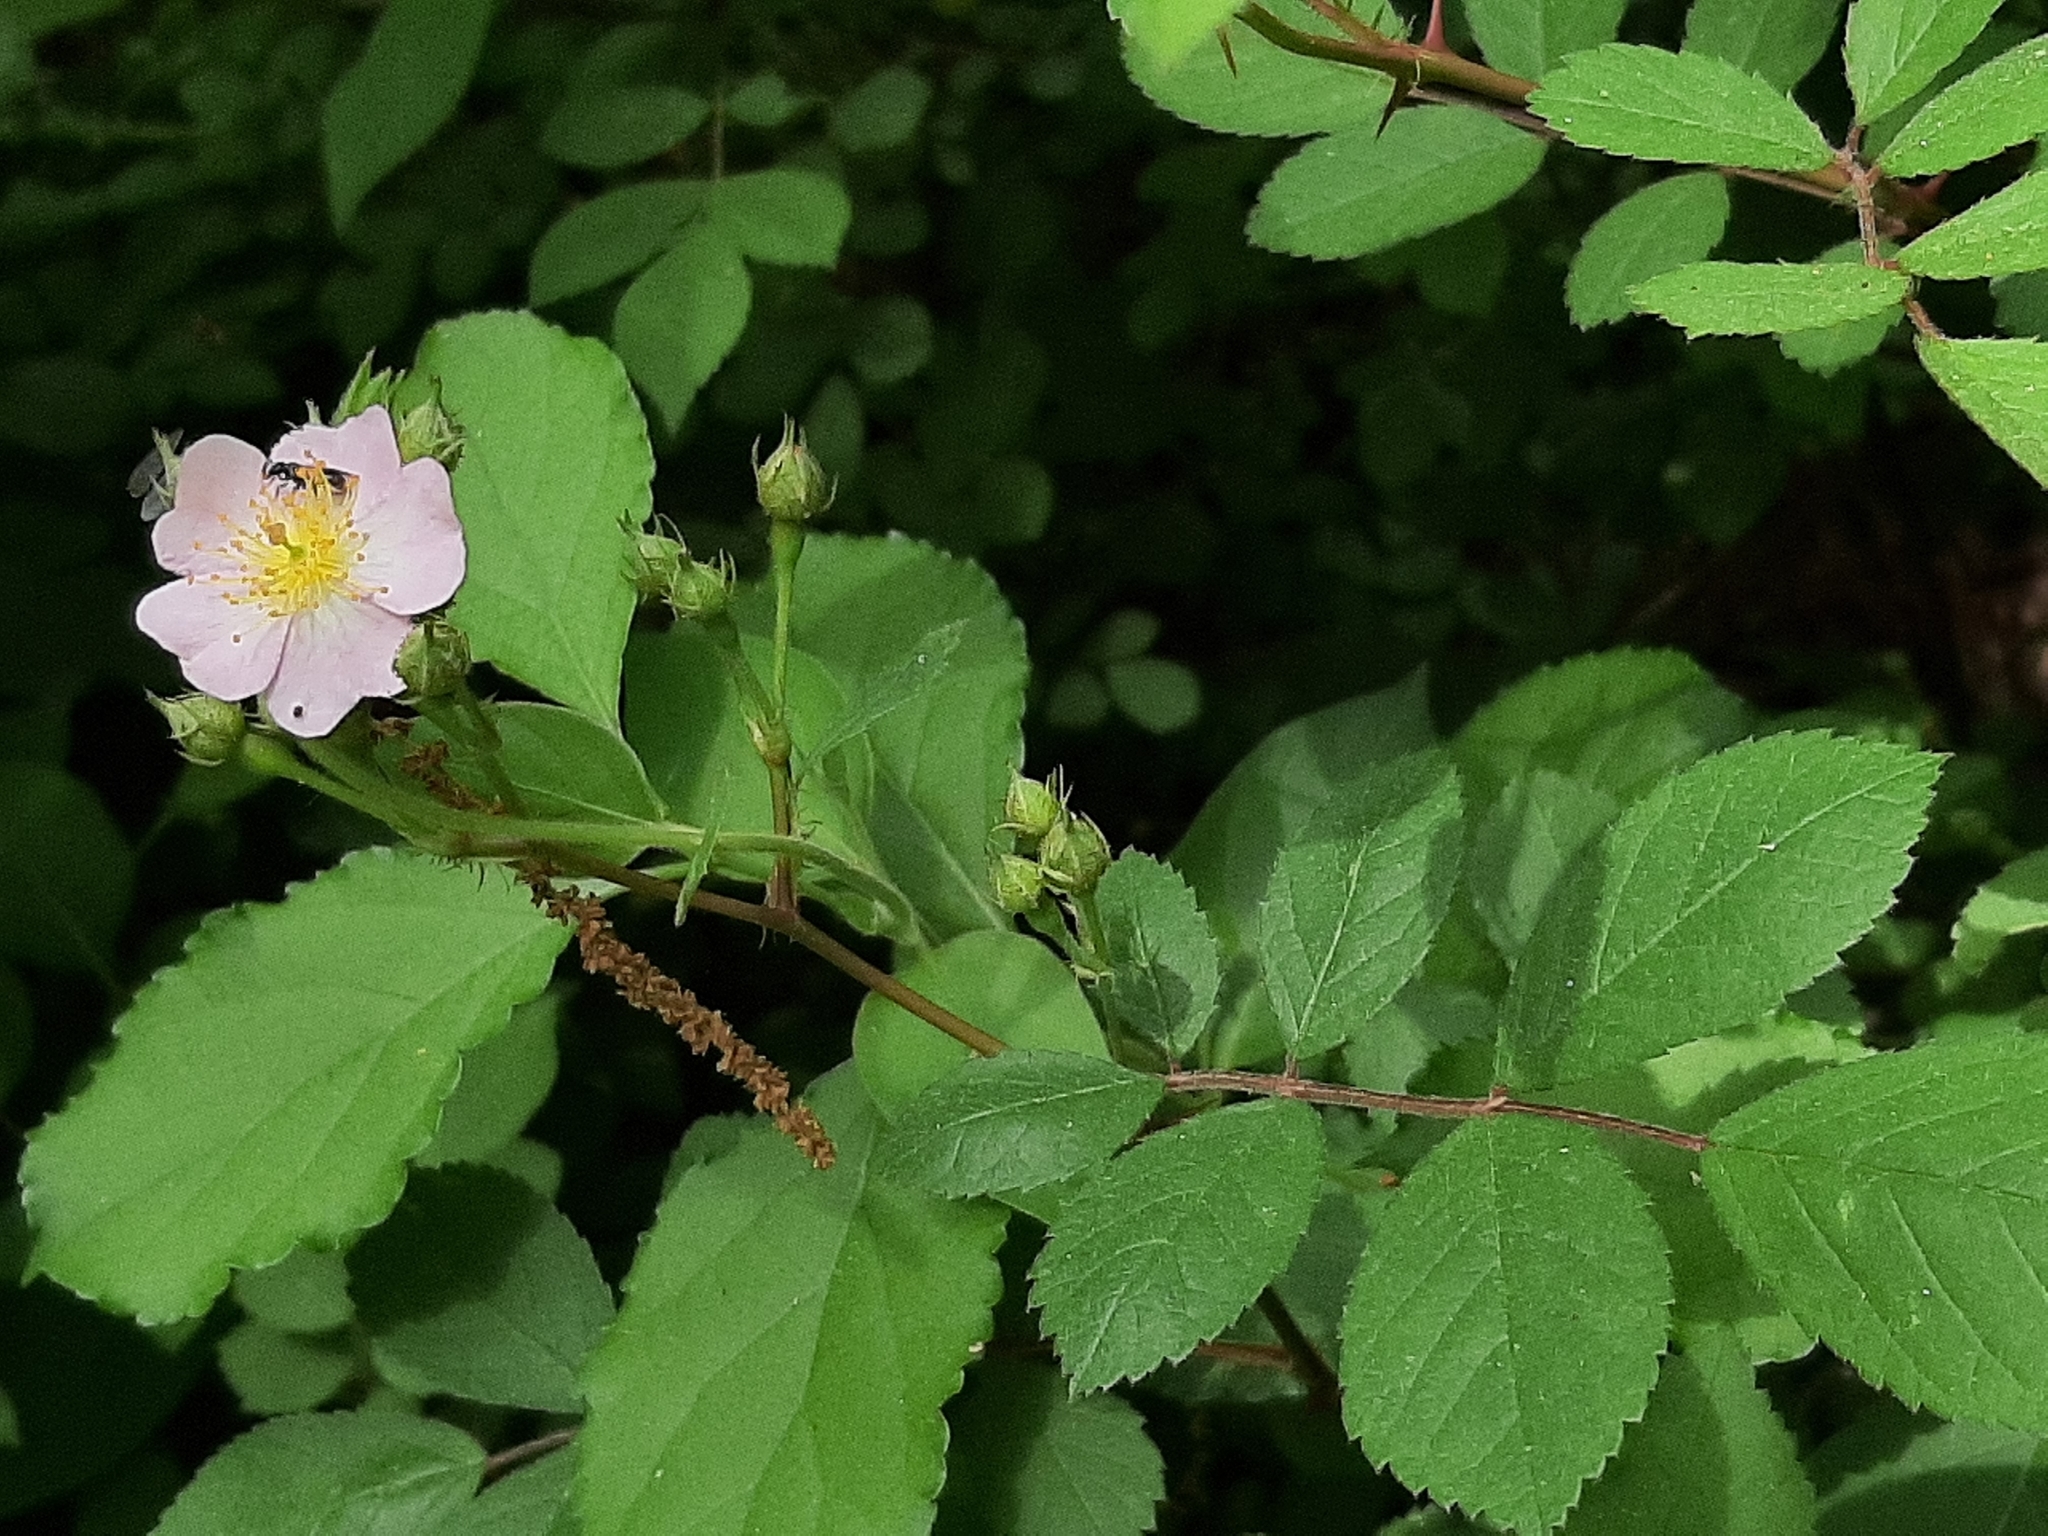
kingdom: Plantae
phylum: Tracheophyta
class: Magnoliopsida
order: Rosales
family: Rosaceae
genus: Rosa
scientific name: Rosa multiflora
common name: Multiflora rose
